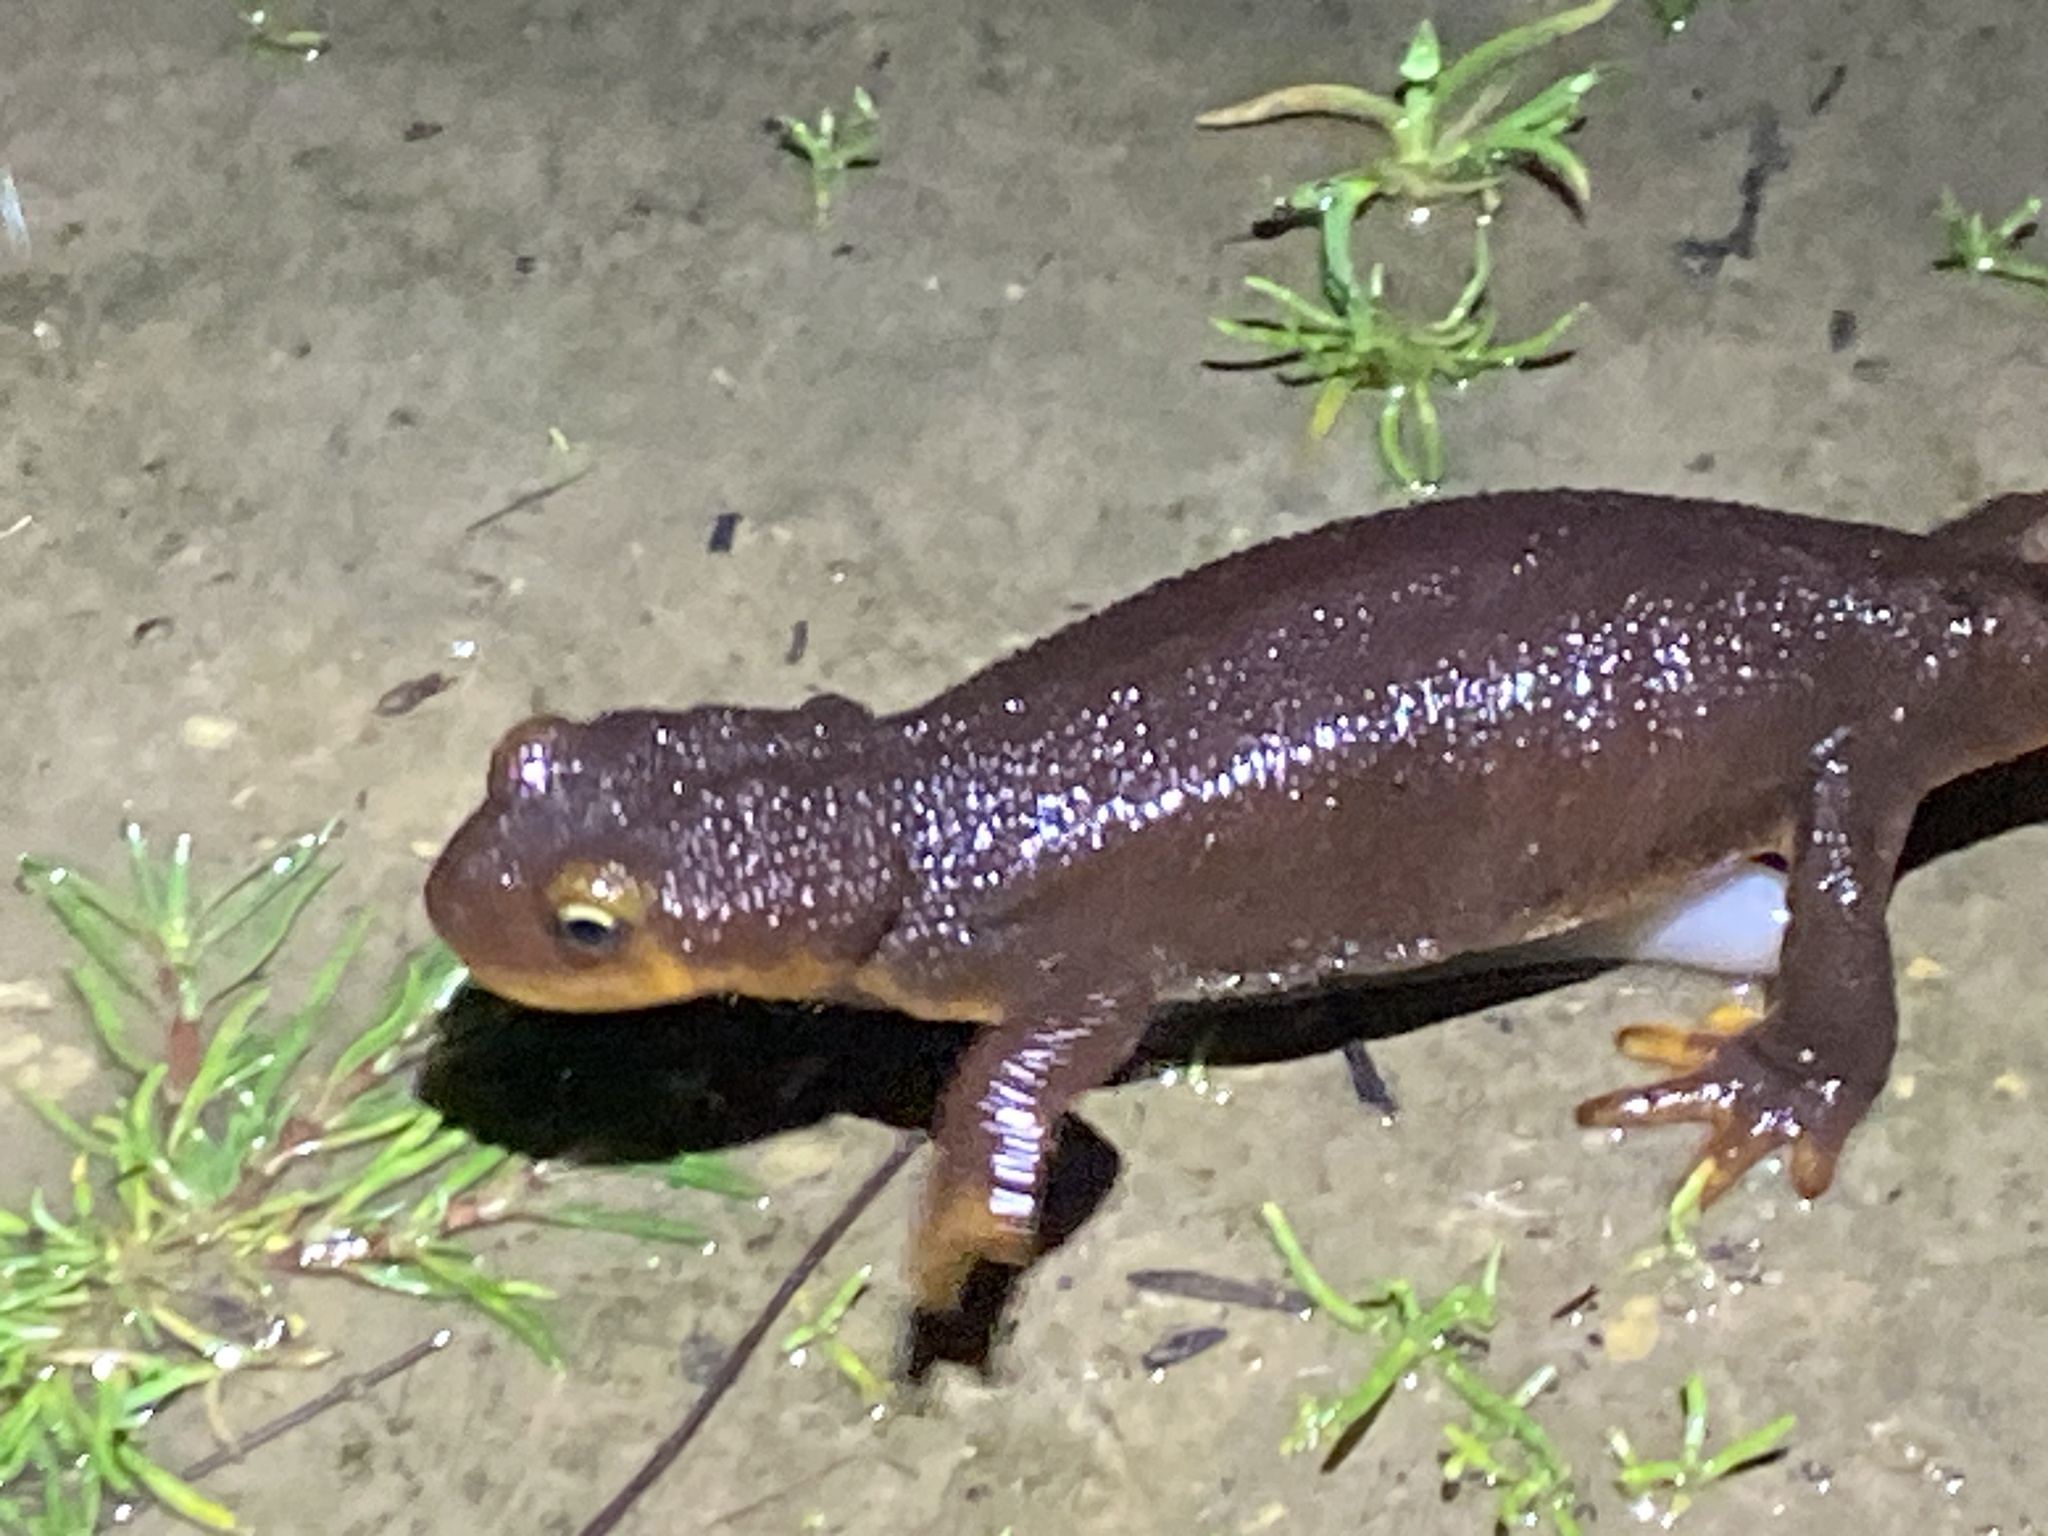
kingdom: Animalia
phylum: Chordata
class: Amphibia
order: Caudata
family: Salamandridae
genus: Taricha
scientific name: Taricha torosa
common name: California newt
